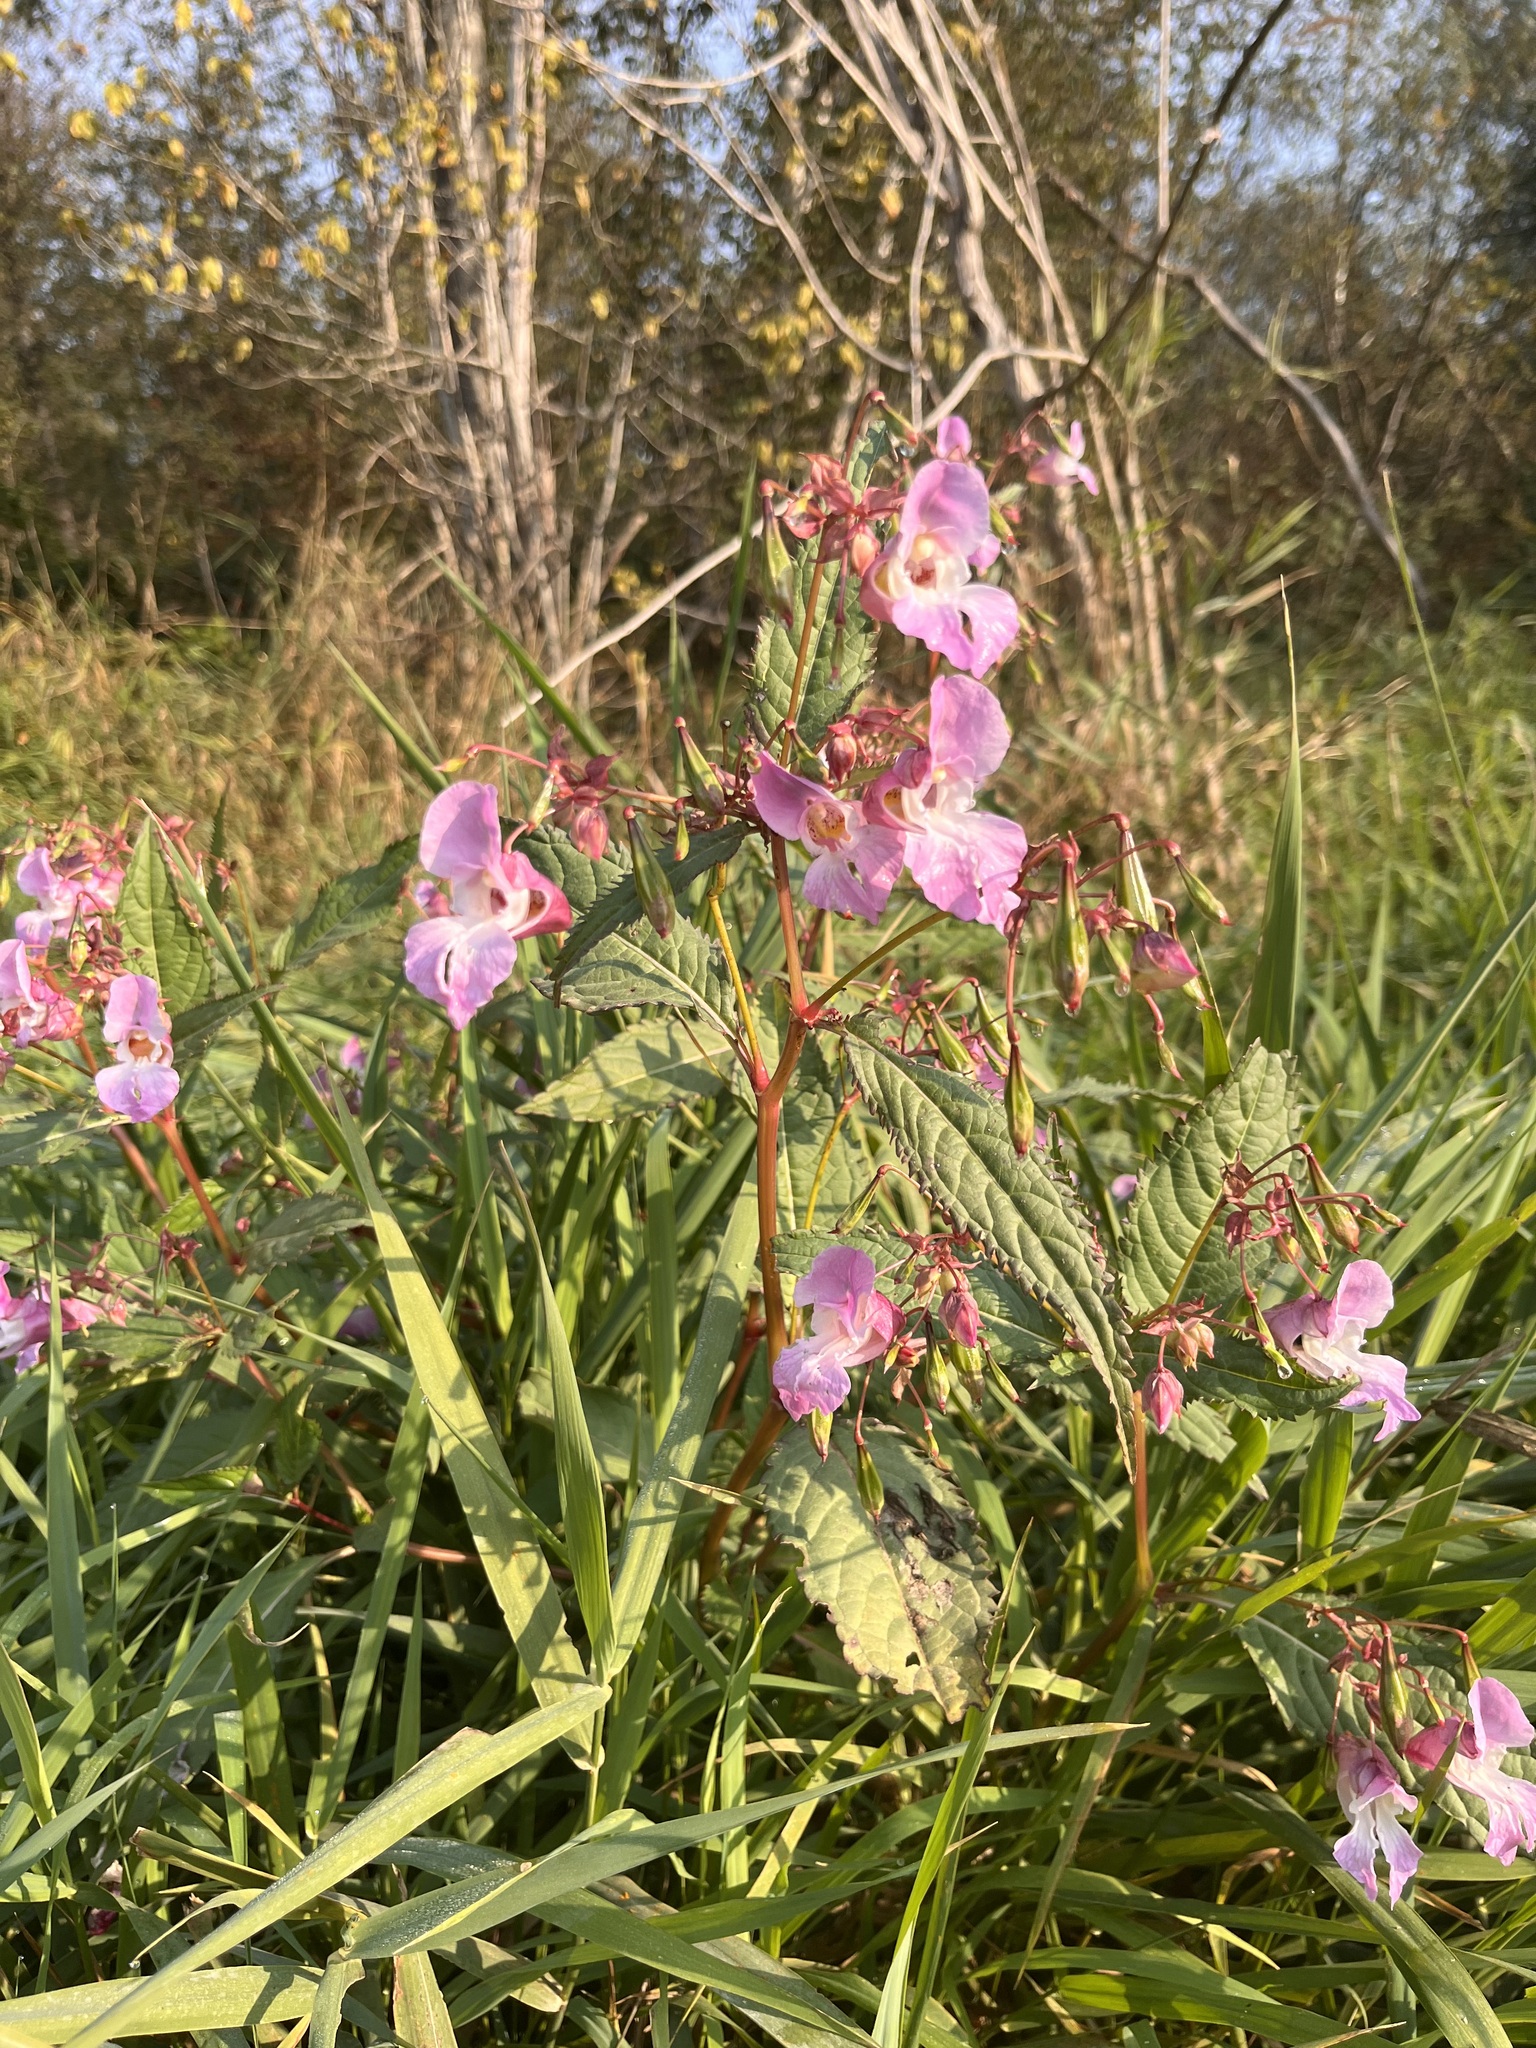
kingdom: Plantae
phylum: Tracheophyta
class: Magnoliopsida
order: Ericales
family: Balsaminaceae
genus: Impatiens
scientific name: Impatiens glandulifera
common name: Himalayan balsam
